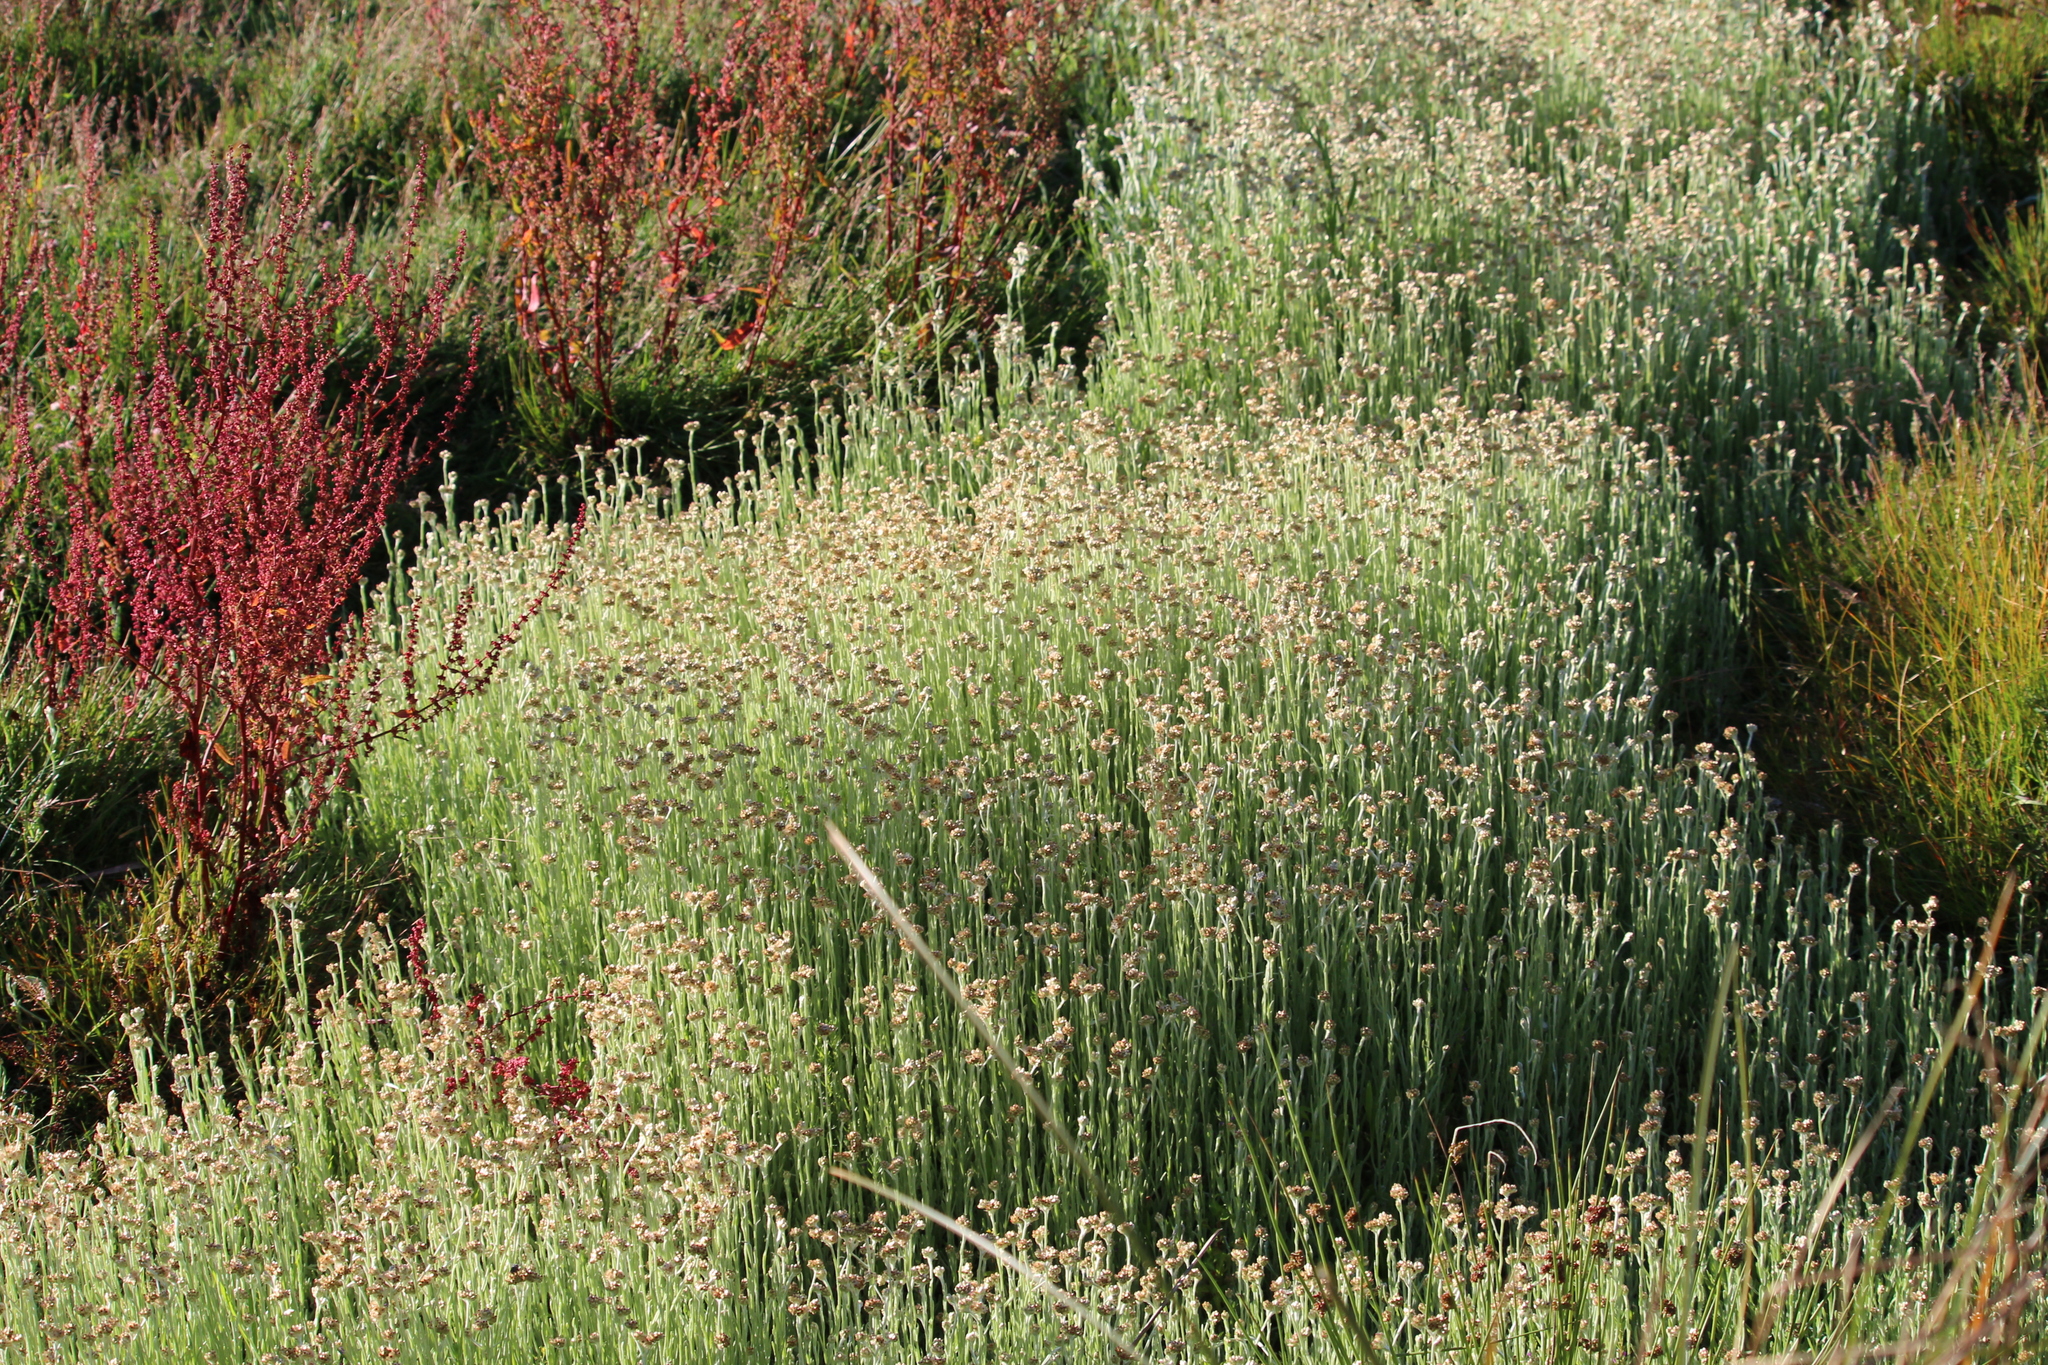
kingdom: Plantae
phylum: Tracheophyta
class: Magnoliopsida
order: Asterales
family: Asteraceae
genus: Helichrysum
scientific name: Helichrysum luteoalbum
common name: Daisy
